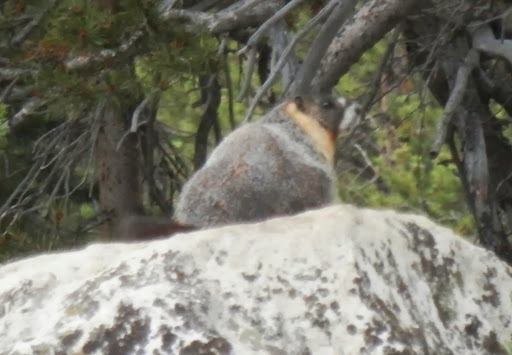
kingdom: Animalia
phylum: Chordata
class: Mammalia
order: Rodentia
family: Sciuridae
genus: Marmota
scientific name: Marmota flaviventris
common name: Yellow-bellied marmot
